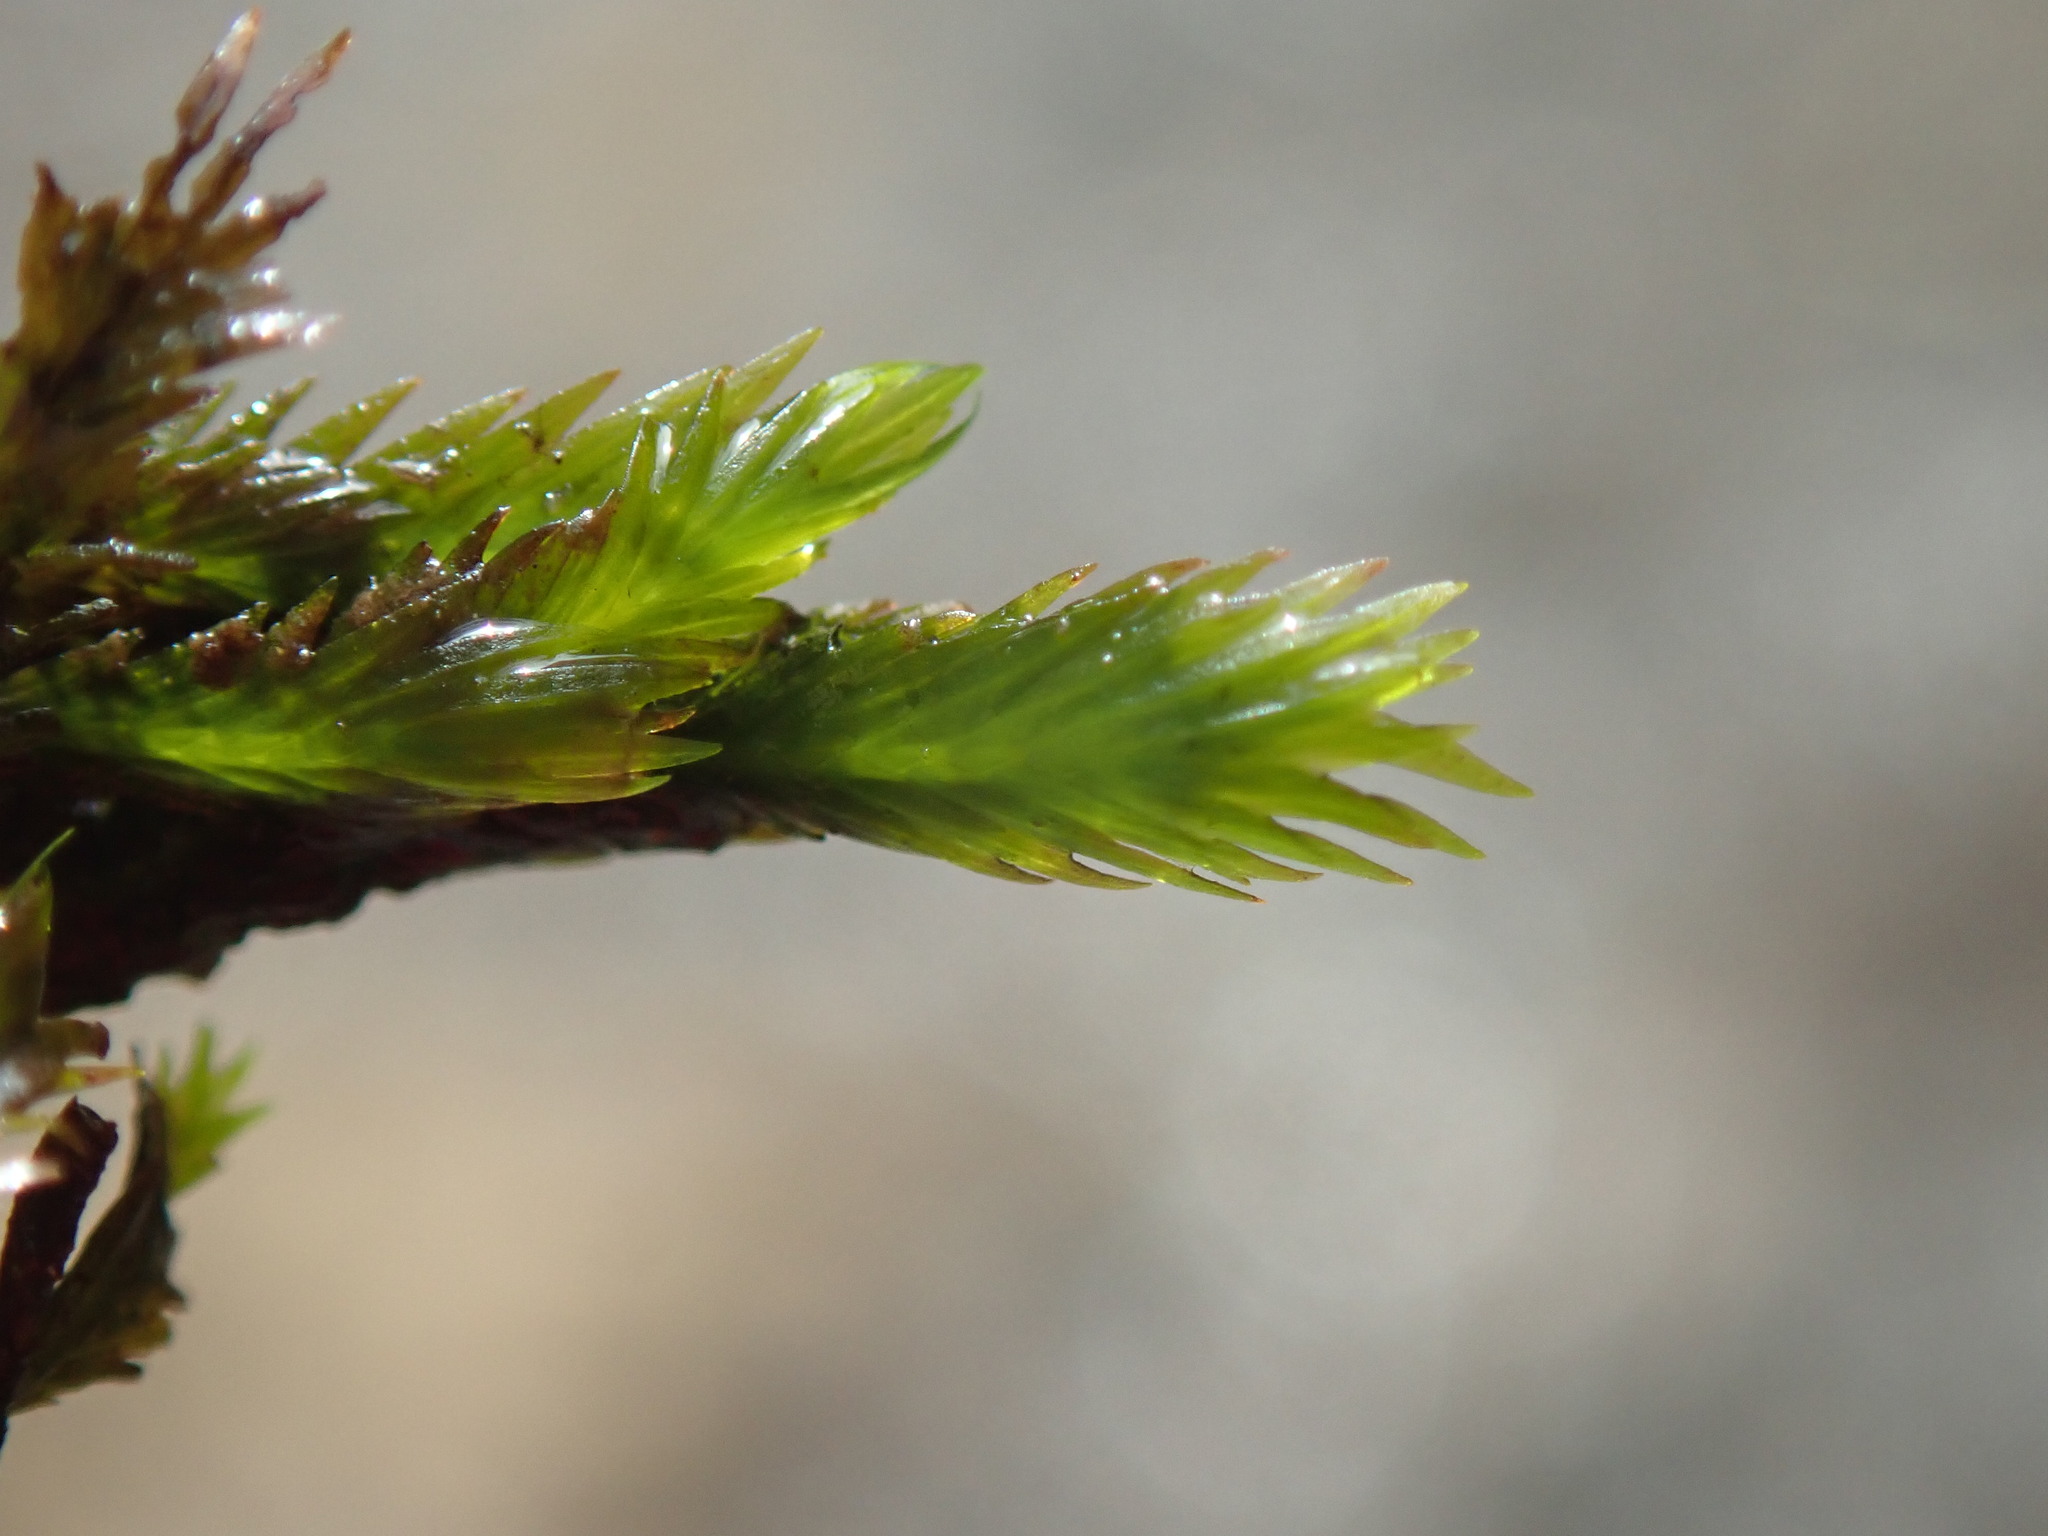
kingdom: Plantae
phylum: Bryophyta
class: Bryopsida
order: Dicranales
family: Fissidentaceae
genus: Fissidens
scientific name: Fissidens grandifrons
